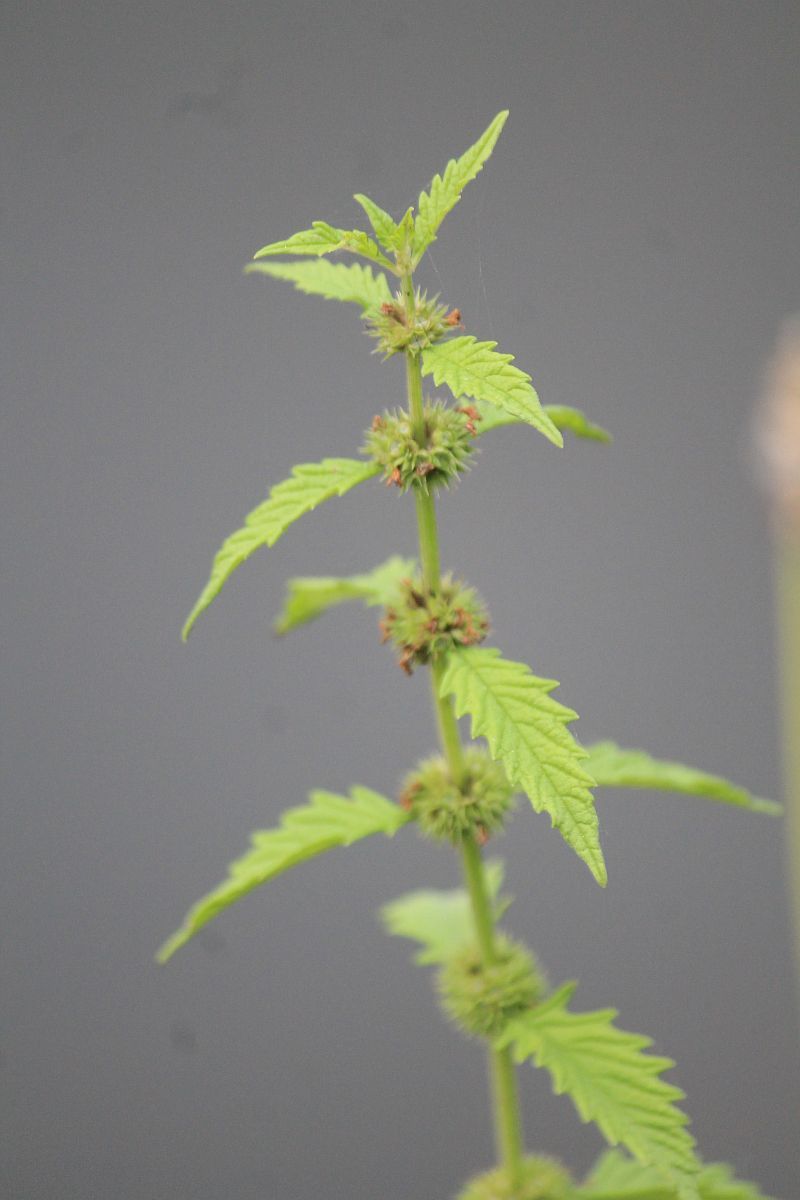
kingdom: Plantae
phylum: Tracheophyta
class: Magnoliopsida
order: Lamiales
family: Lamiaceae
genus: Lycopus
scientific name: Lycopus europaeus
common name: European bugleweed
